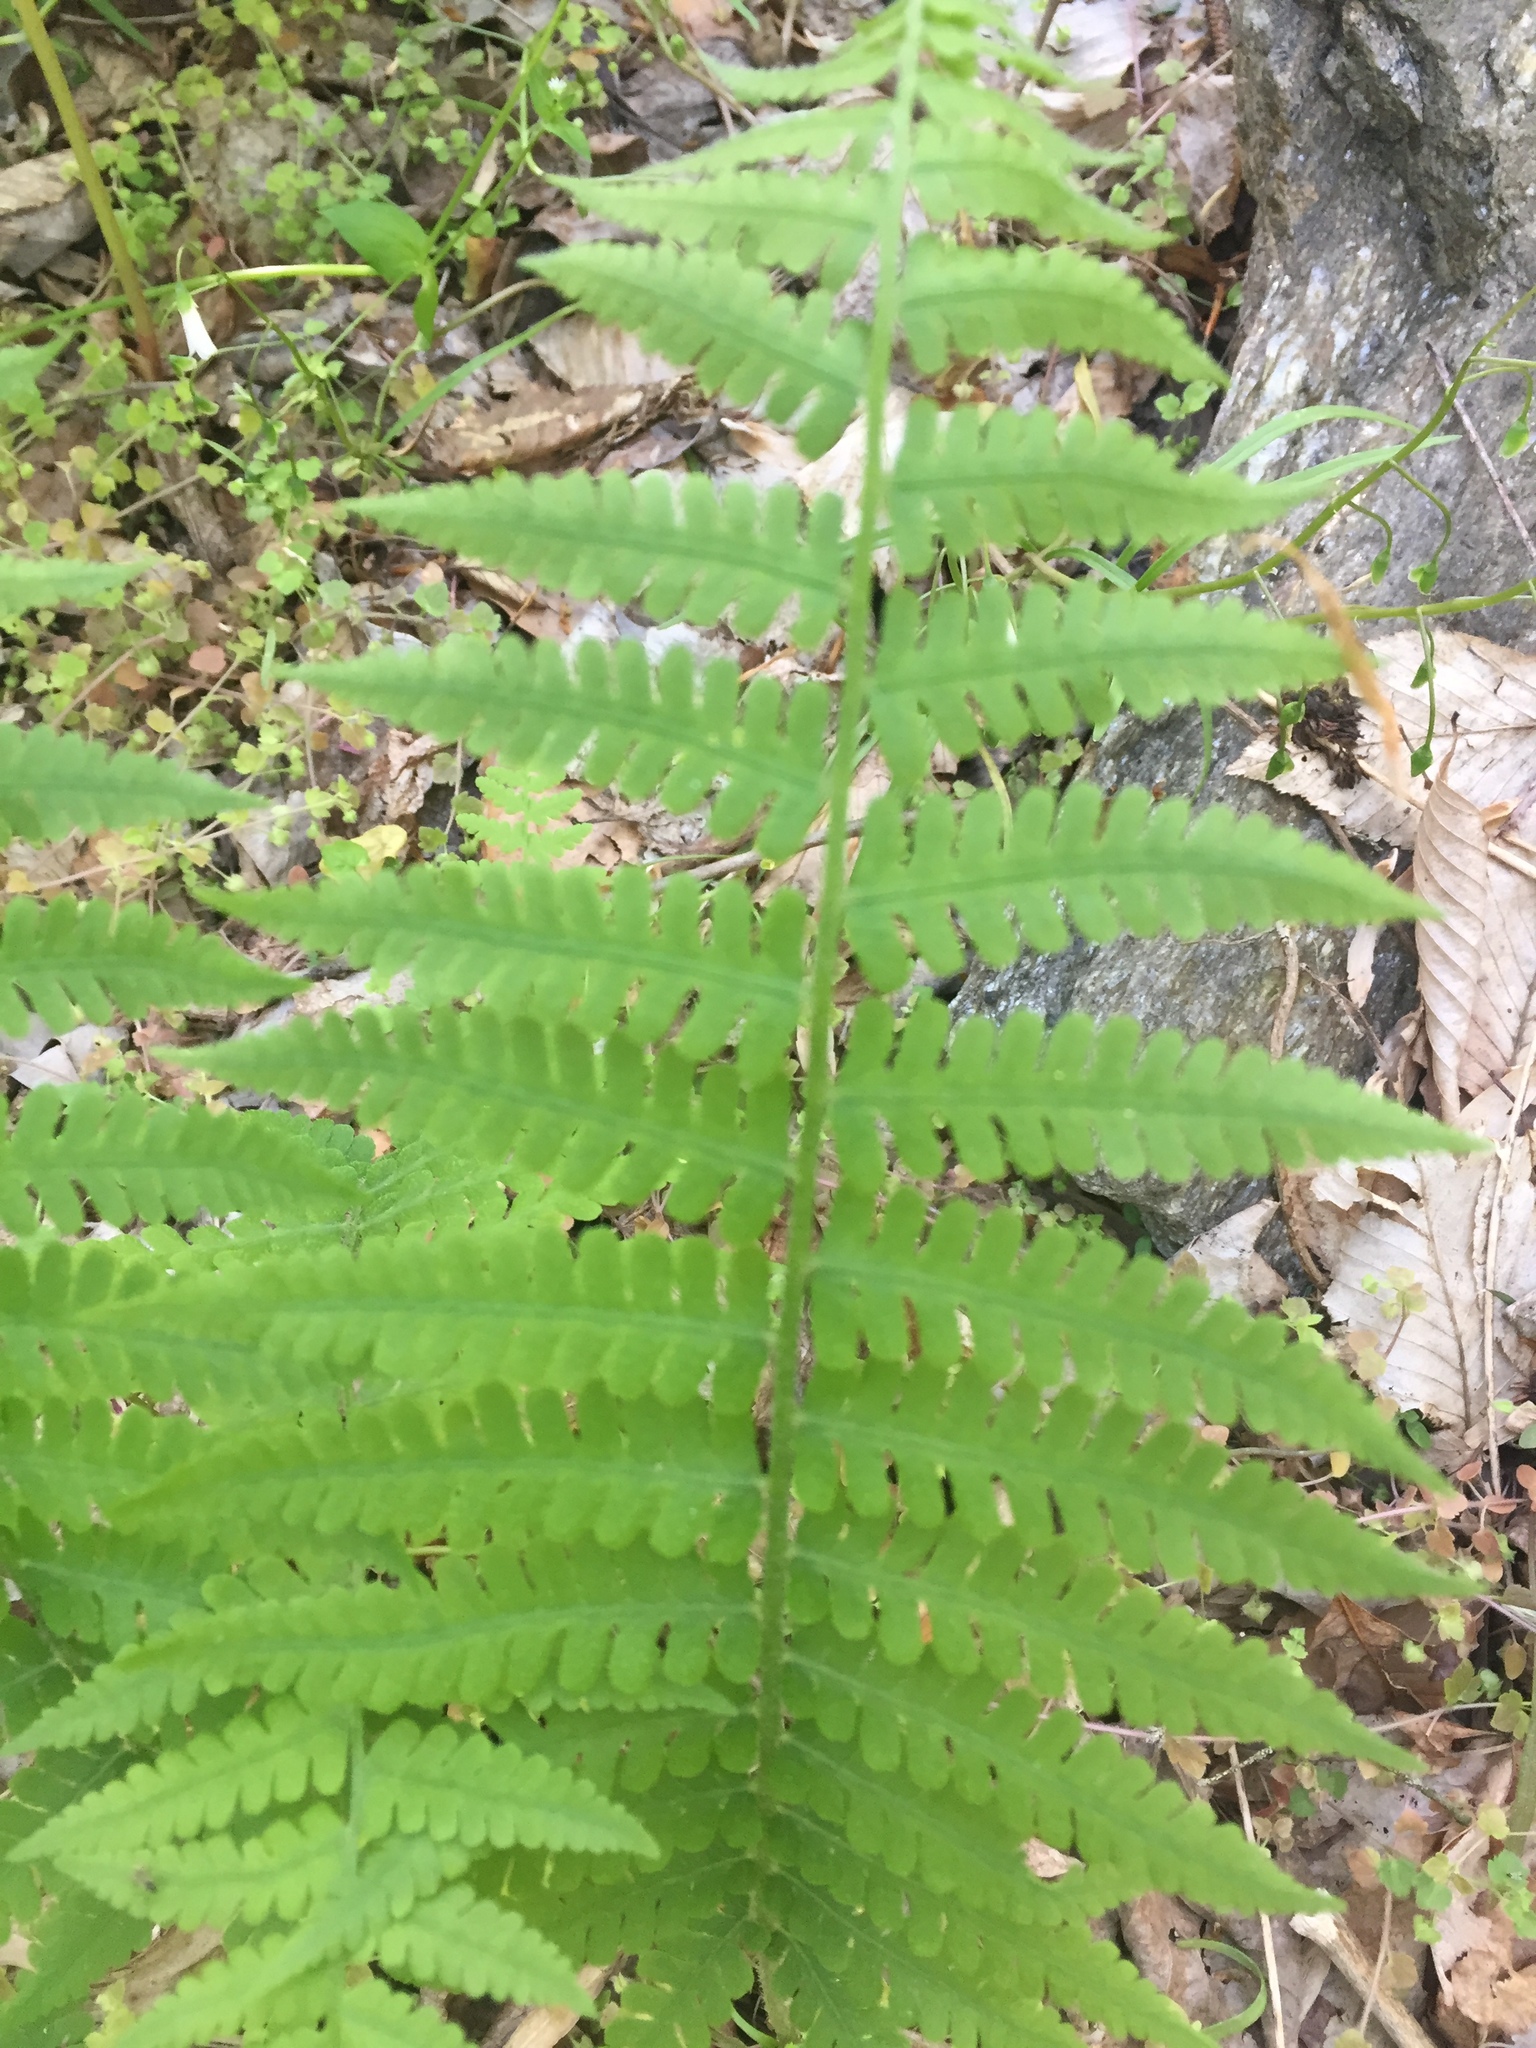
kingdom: Plantae
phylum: Tracheophyta
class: Polypodiopsida
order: Polypodiales
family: Athyriaceae
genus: Deparia
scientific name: Deparia acrostichoides
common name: Silver false spleenwort
